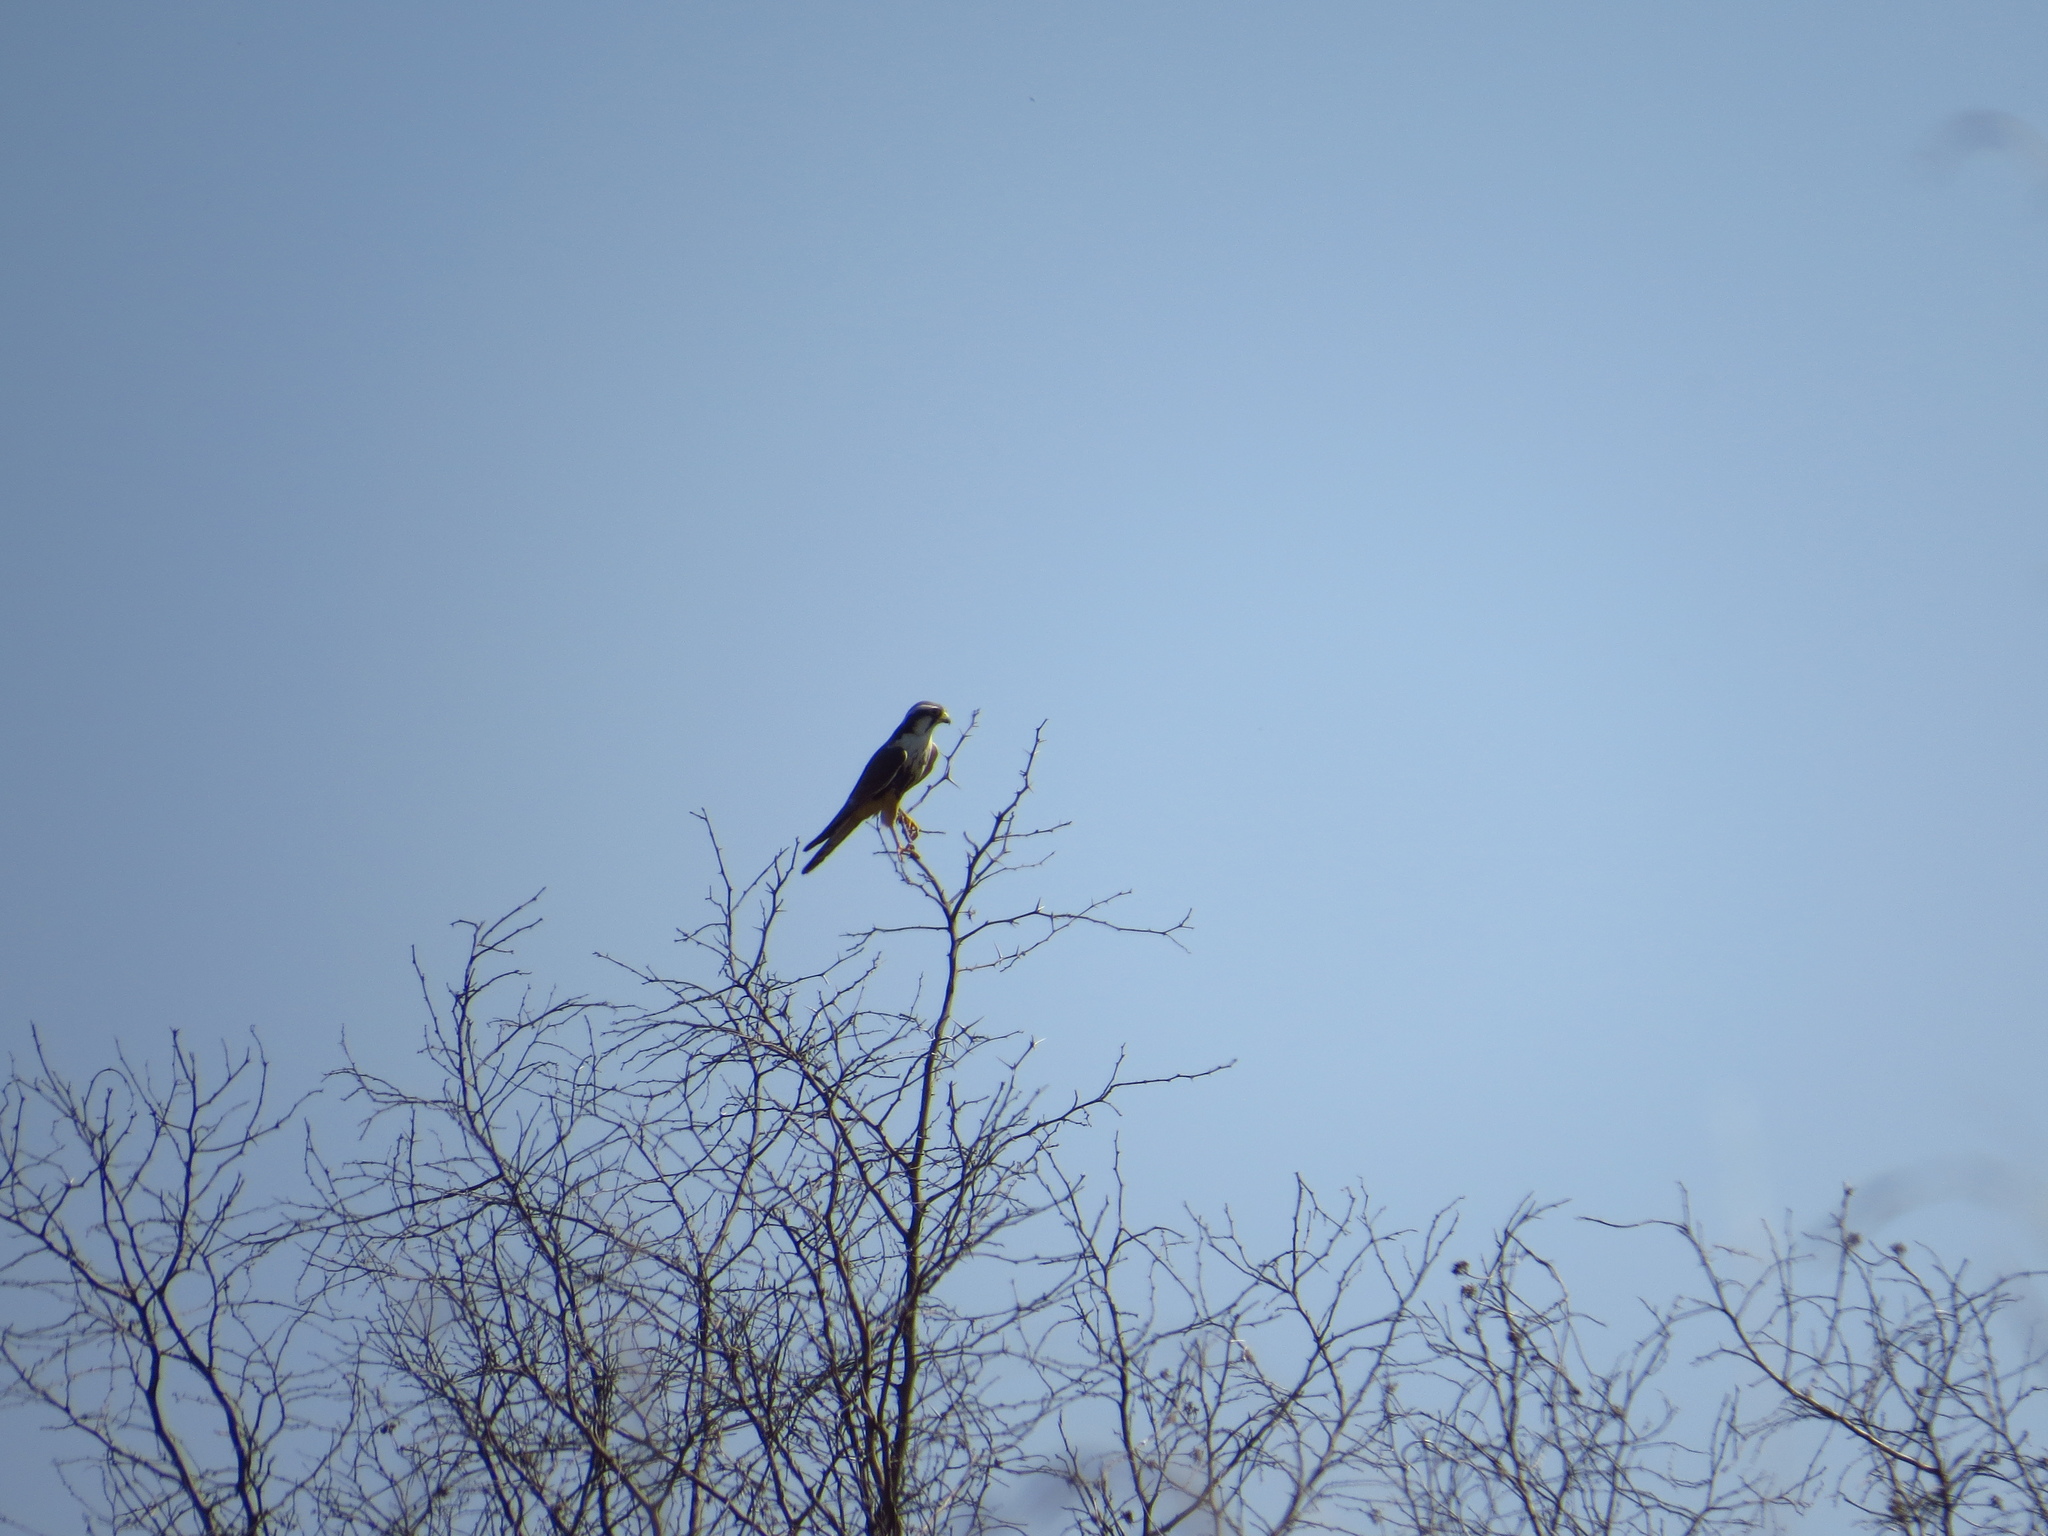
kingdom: Animalia
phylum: Chordata
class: Aves
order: Falconiformes
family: Falconidae
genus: Falco
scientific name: Falco femoralis
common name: Aplomado falcon
